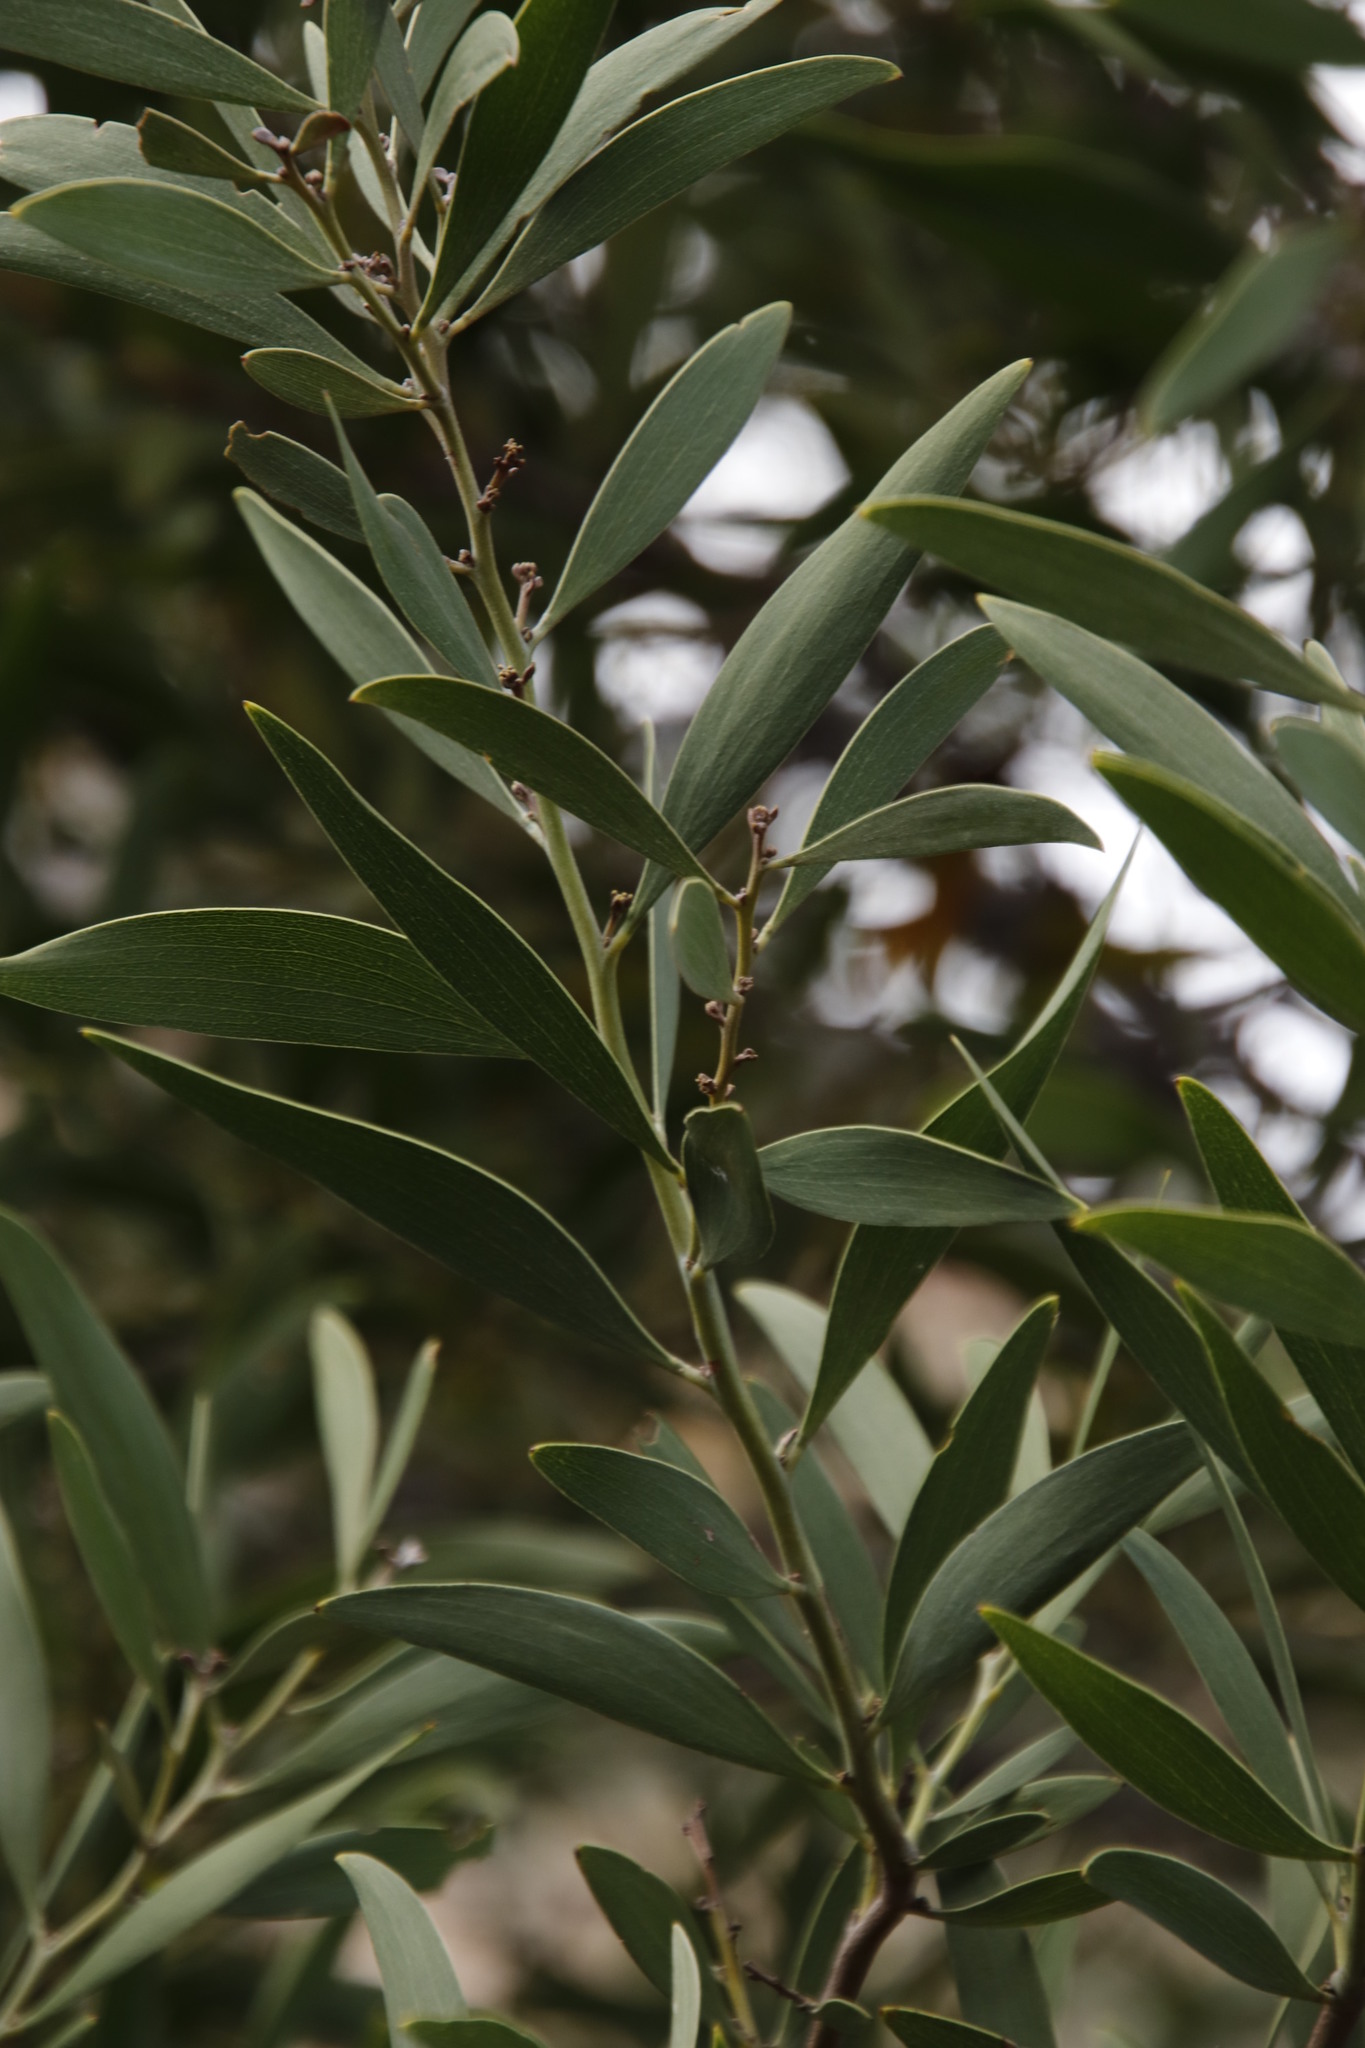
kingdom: Plantae
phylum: Tracheophyta
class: Magnoliopsida
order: Fabales
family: Fabaceae
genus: Acacia
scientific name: Acacia melanoxylon
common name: Blackwood
